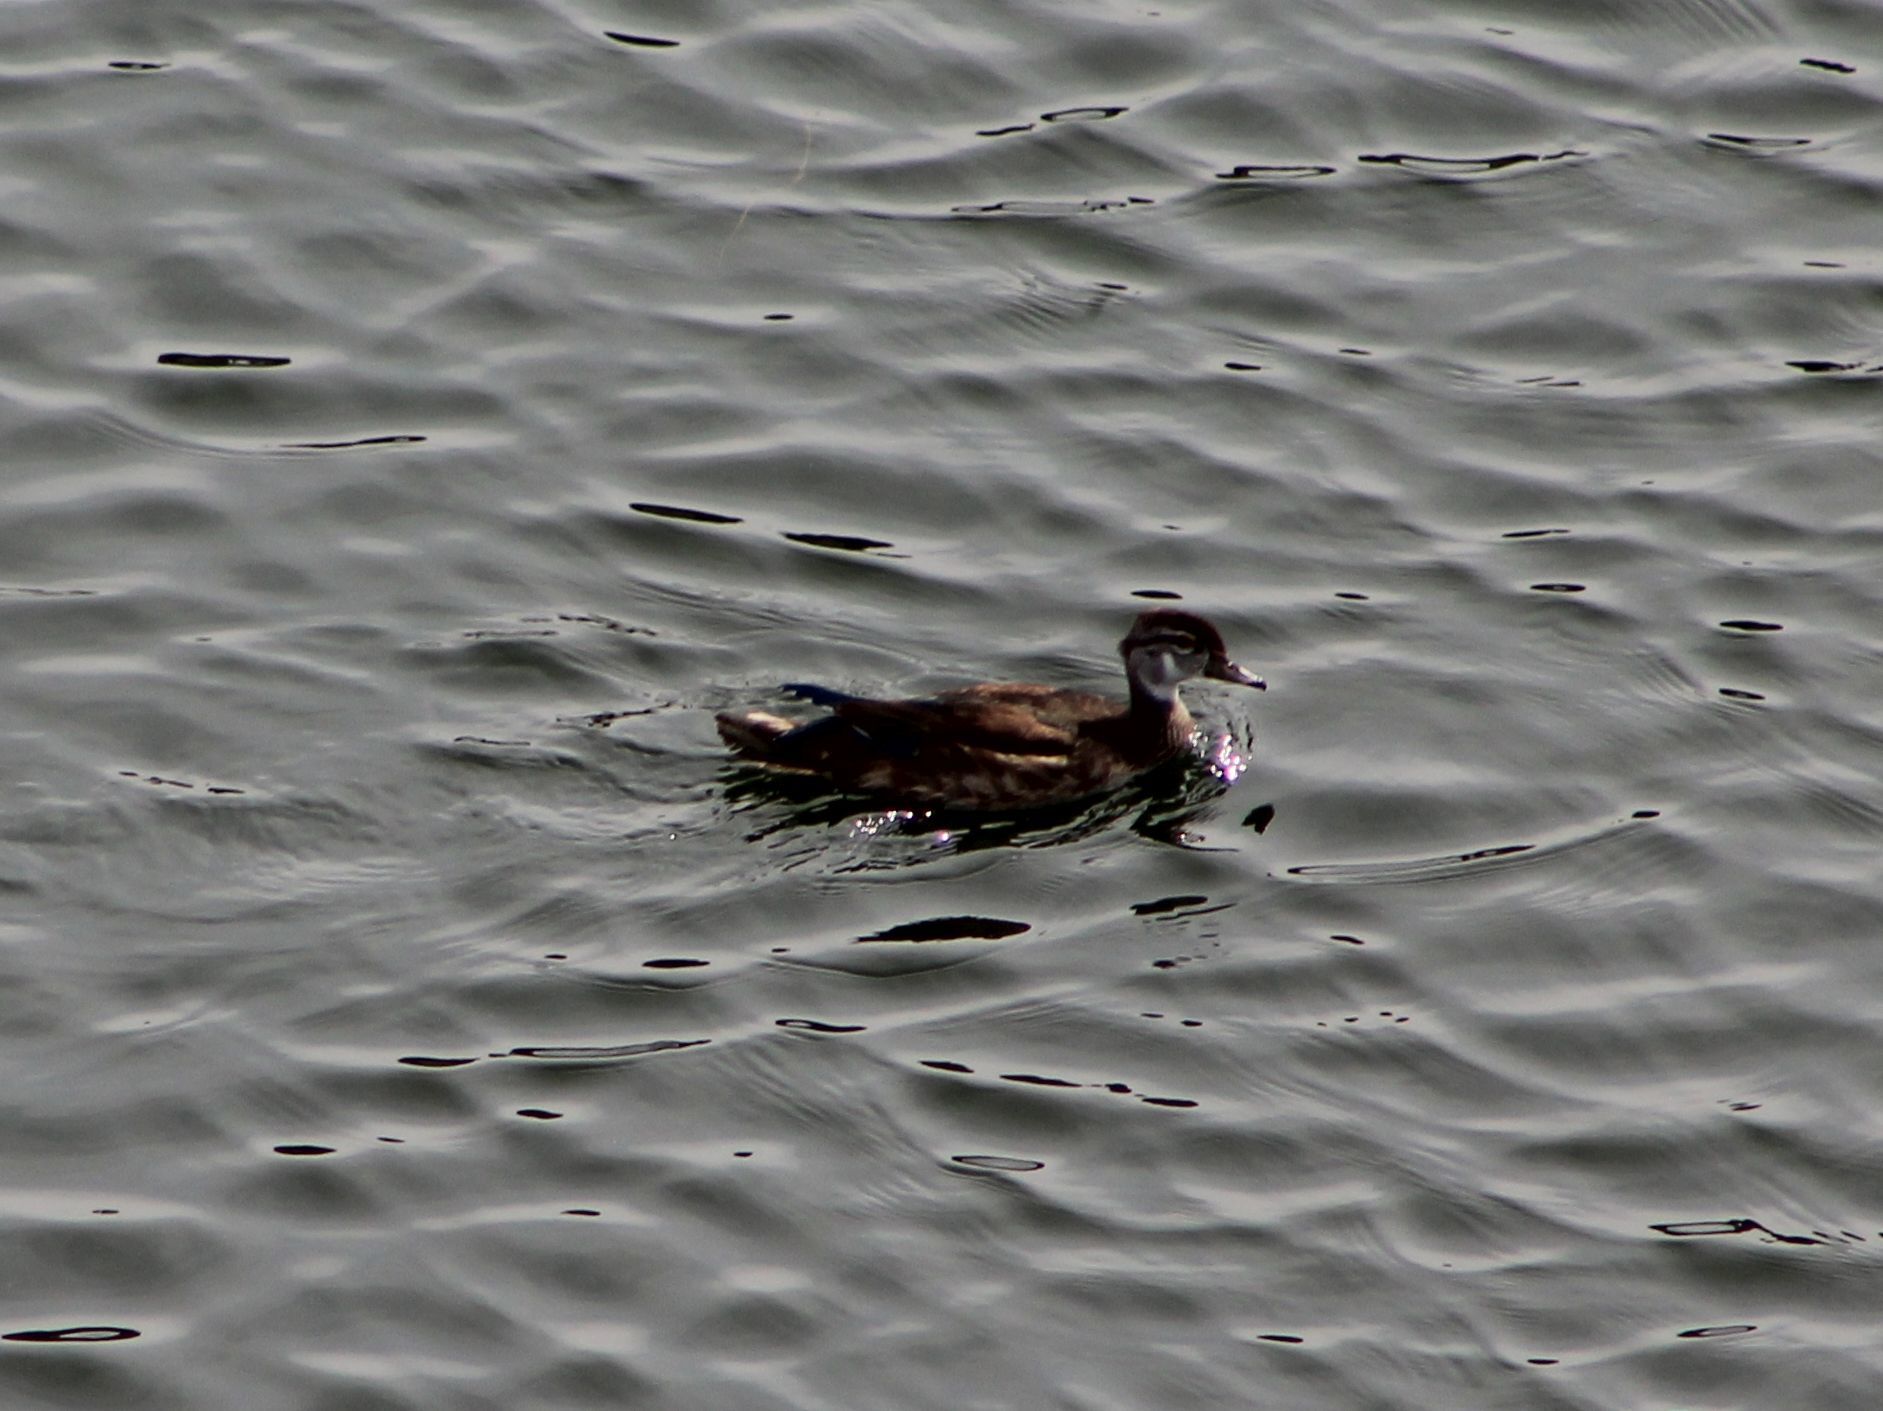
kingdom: Animalia
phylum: Chordata
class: Aves
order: Anseriformes
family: Anatidae
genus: Aix
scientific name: Aix sponsa
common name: Wood duck
